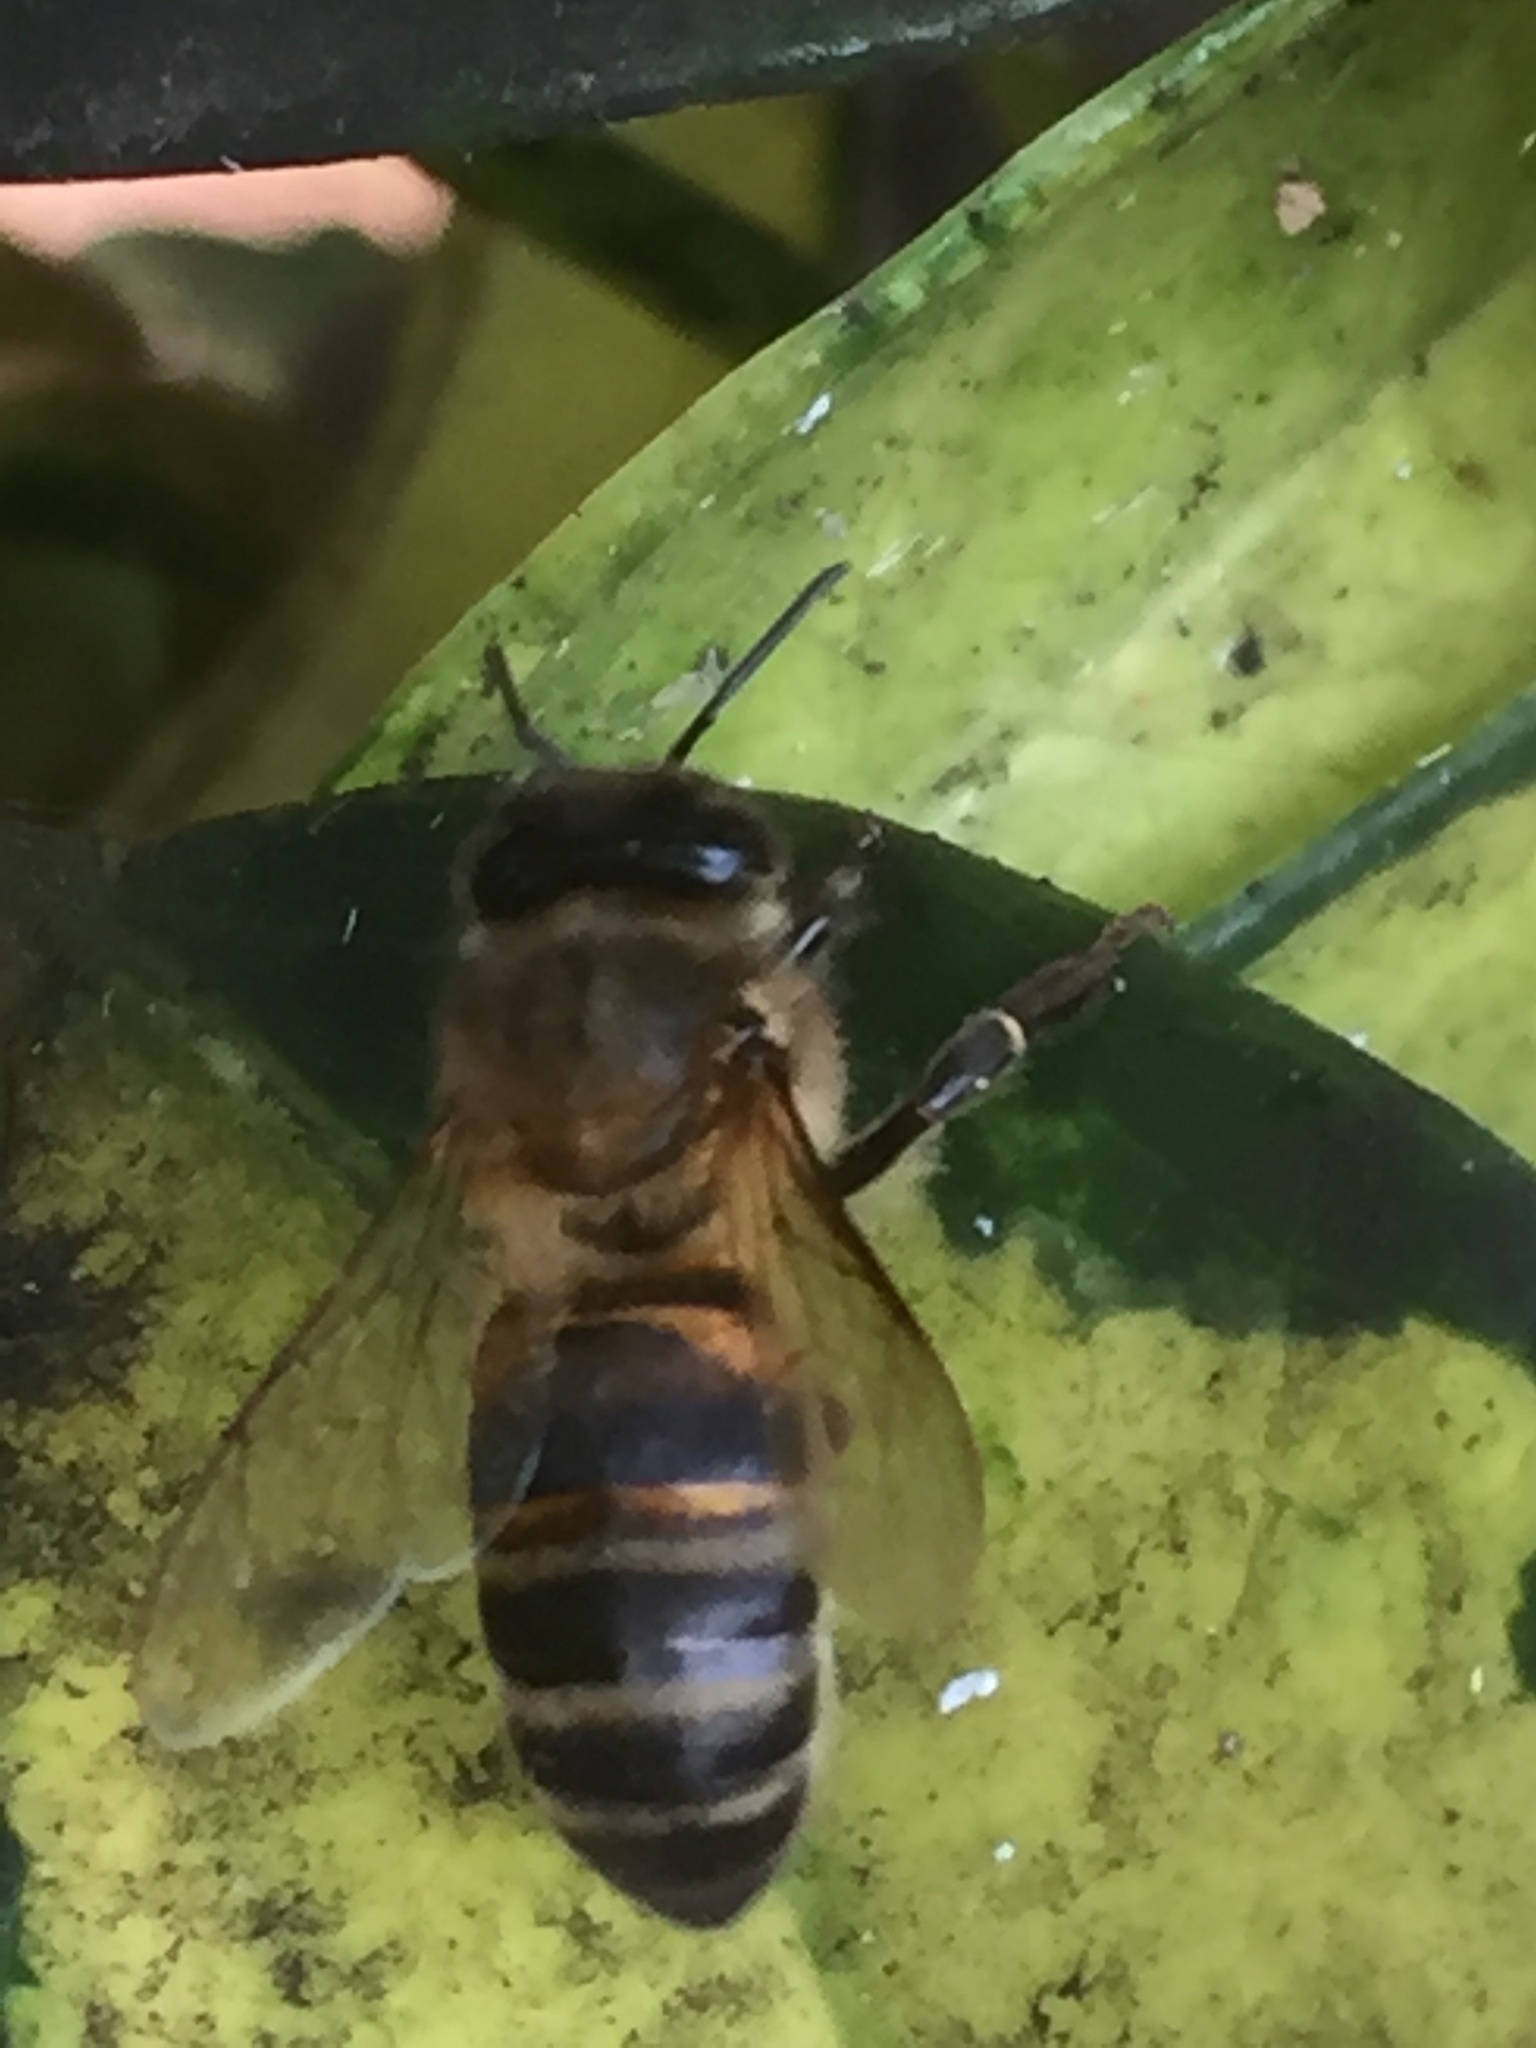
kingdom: Animalia
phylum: Arthropoda
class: Insecta
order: Hymenoptera
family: Apidae
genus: Apis
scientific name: Apis mellifera
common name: Honey bee
